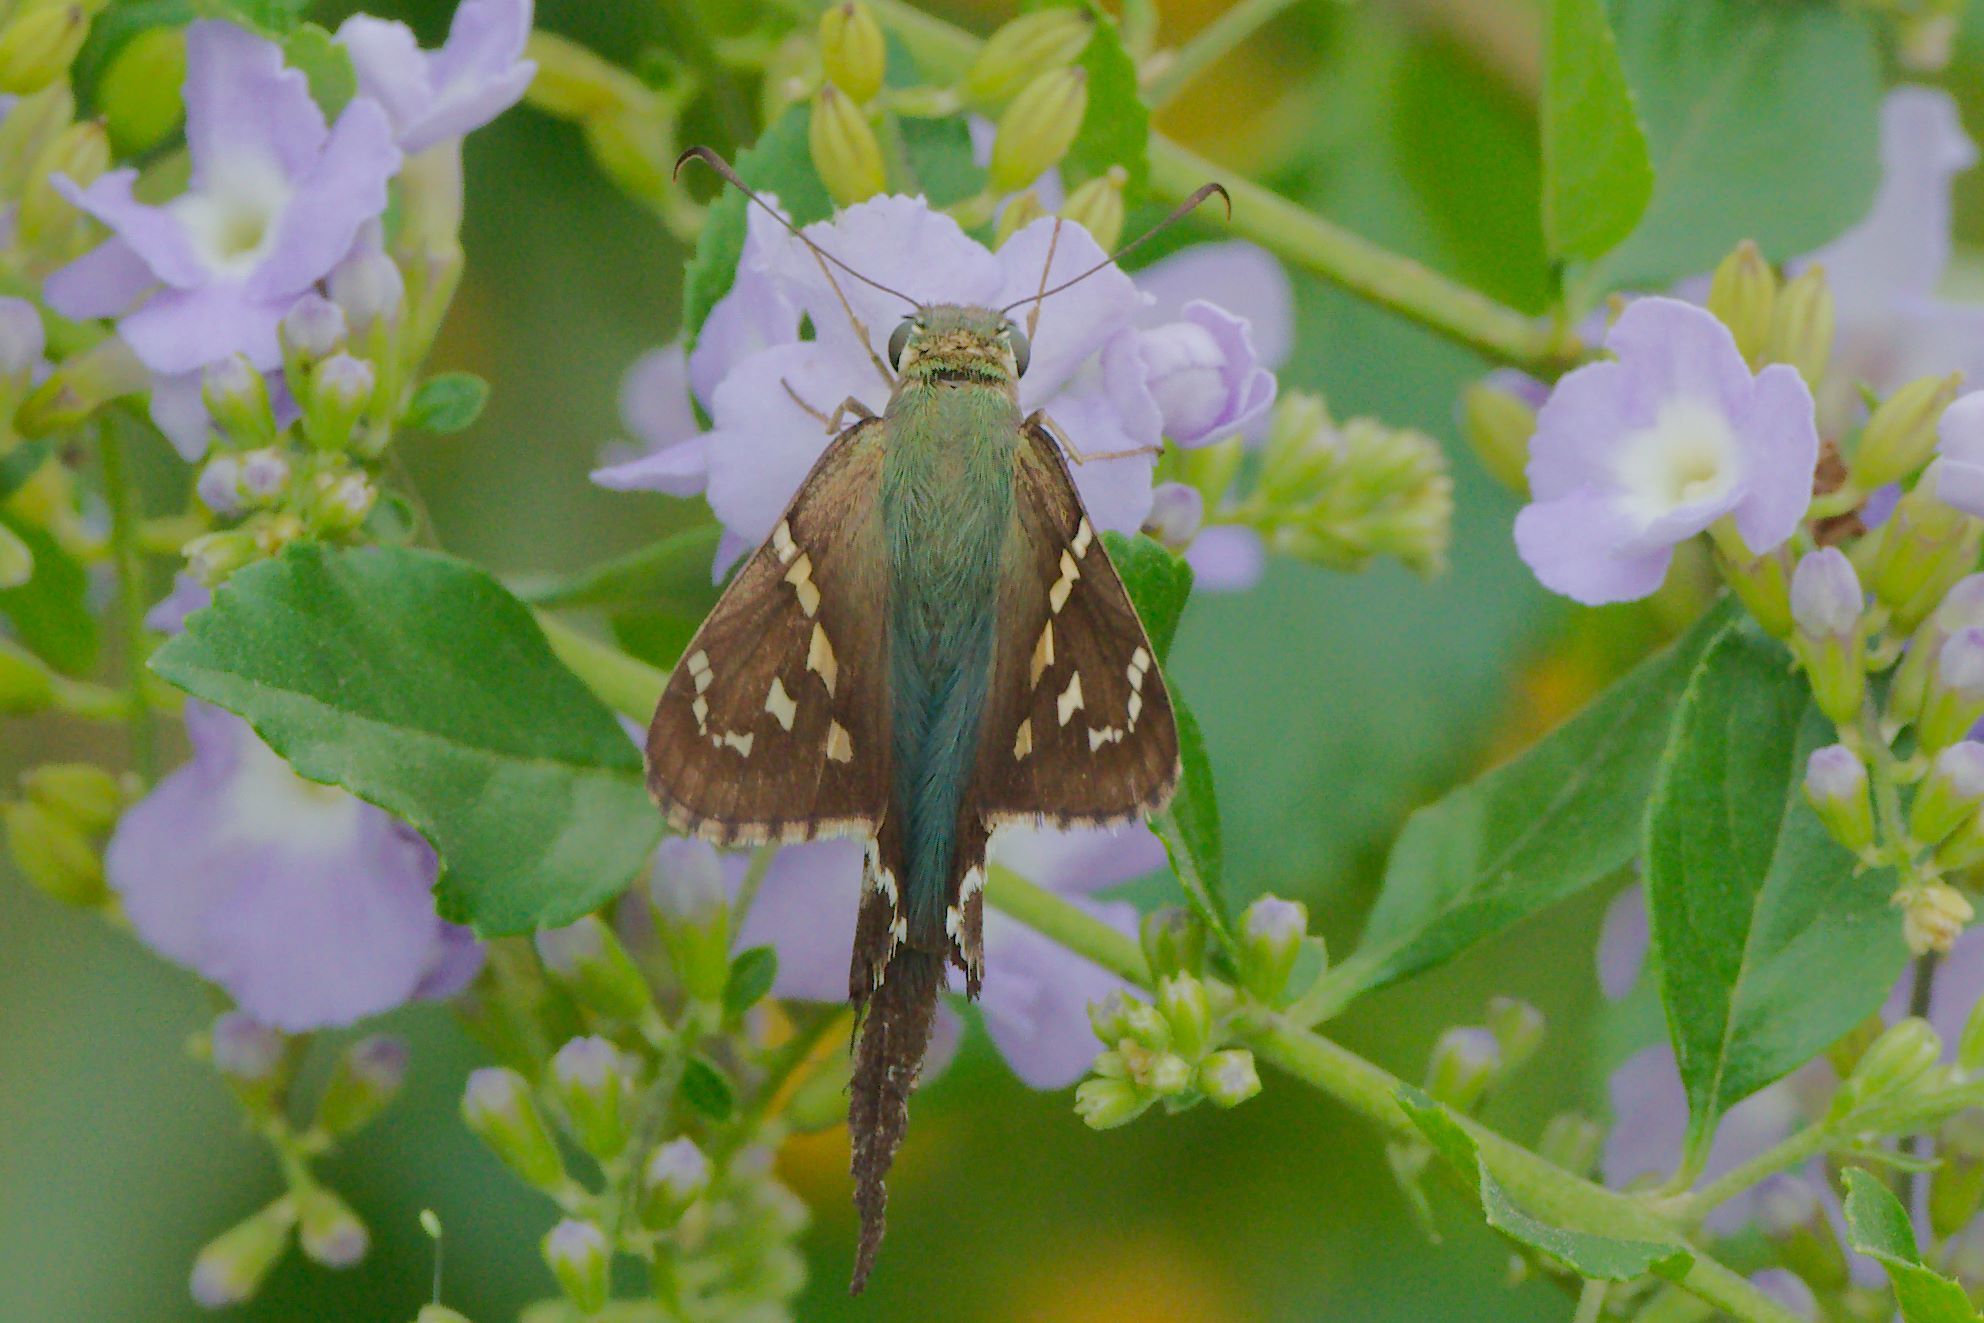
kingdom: Animalia
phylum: Arthropoda
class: Insecta
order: Lepidoptera
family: Hesperiidae
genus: Urbanus
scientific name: Urbanus proteus
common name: Long-tailed skipper
